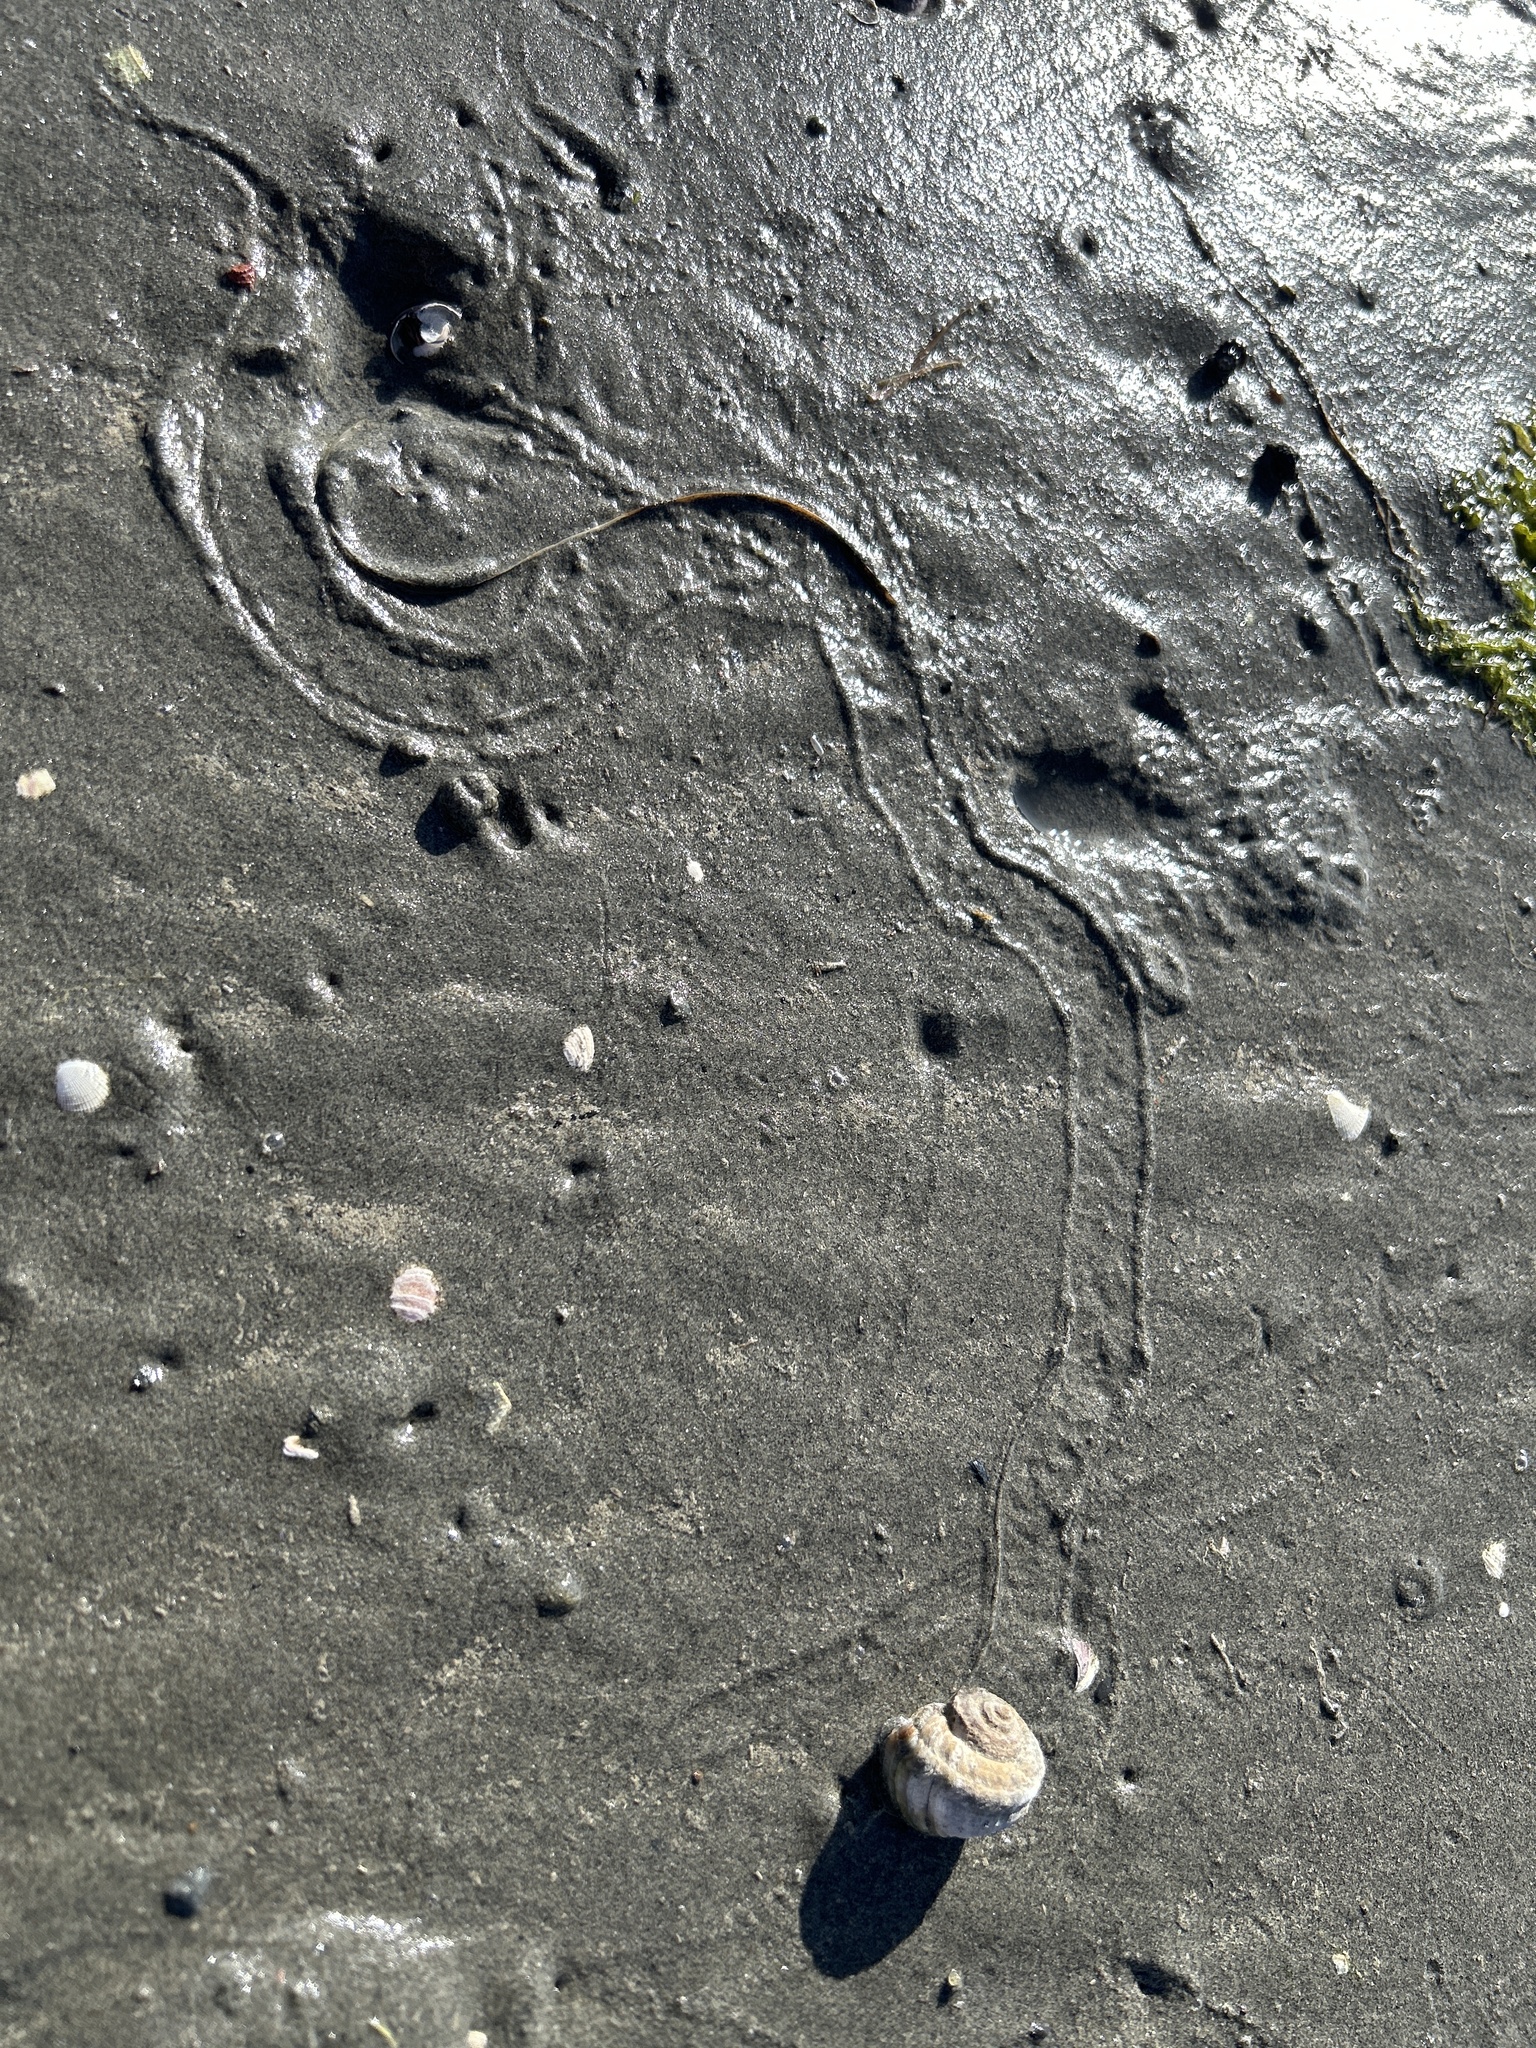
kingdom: Animalia
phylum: Mollusca
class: Gastropoda
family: Amphibolidae
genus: Amphibola
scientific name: Amphibola crenata
